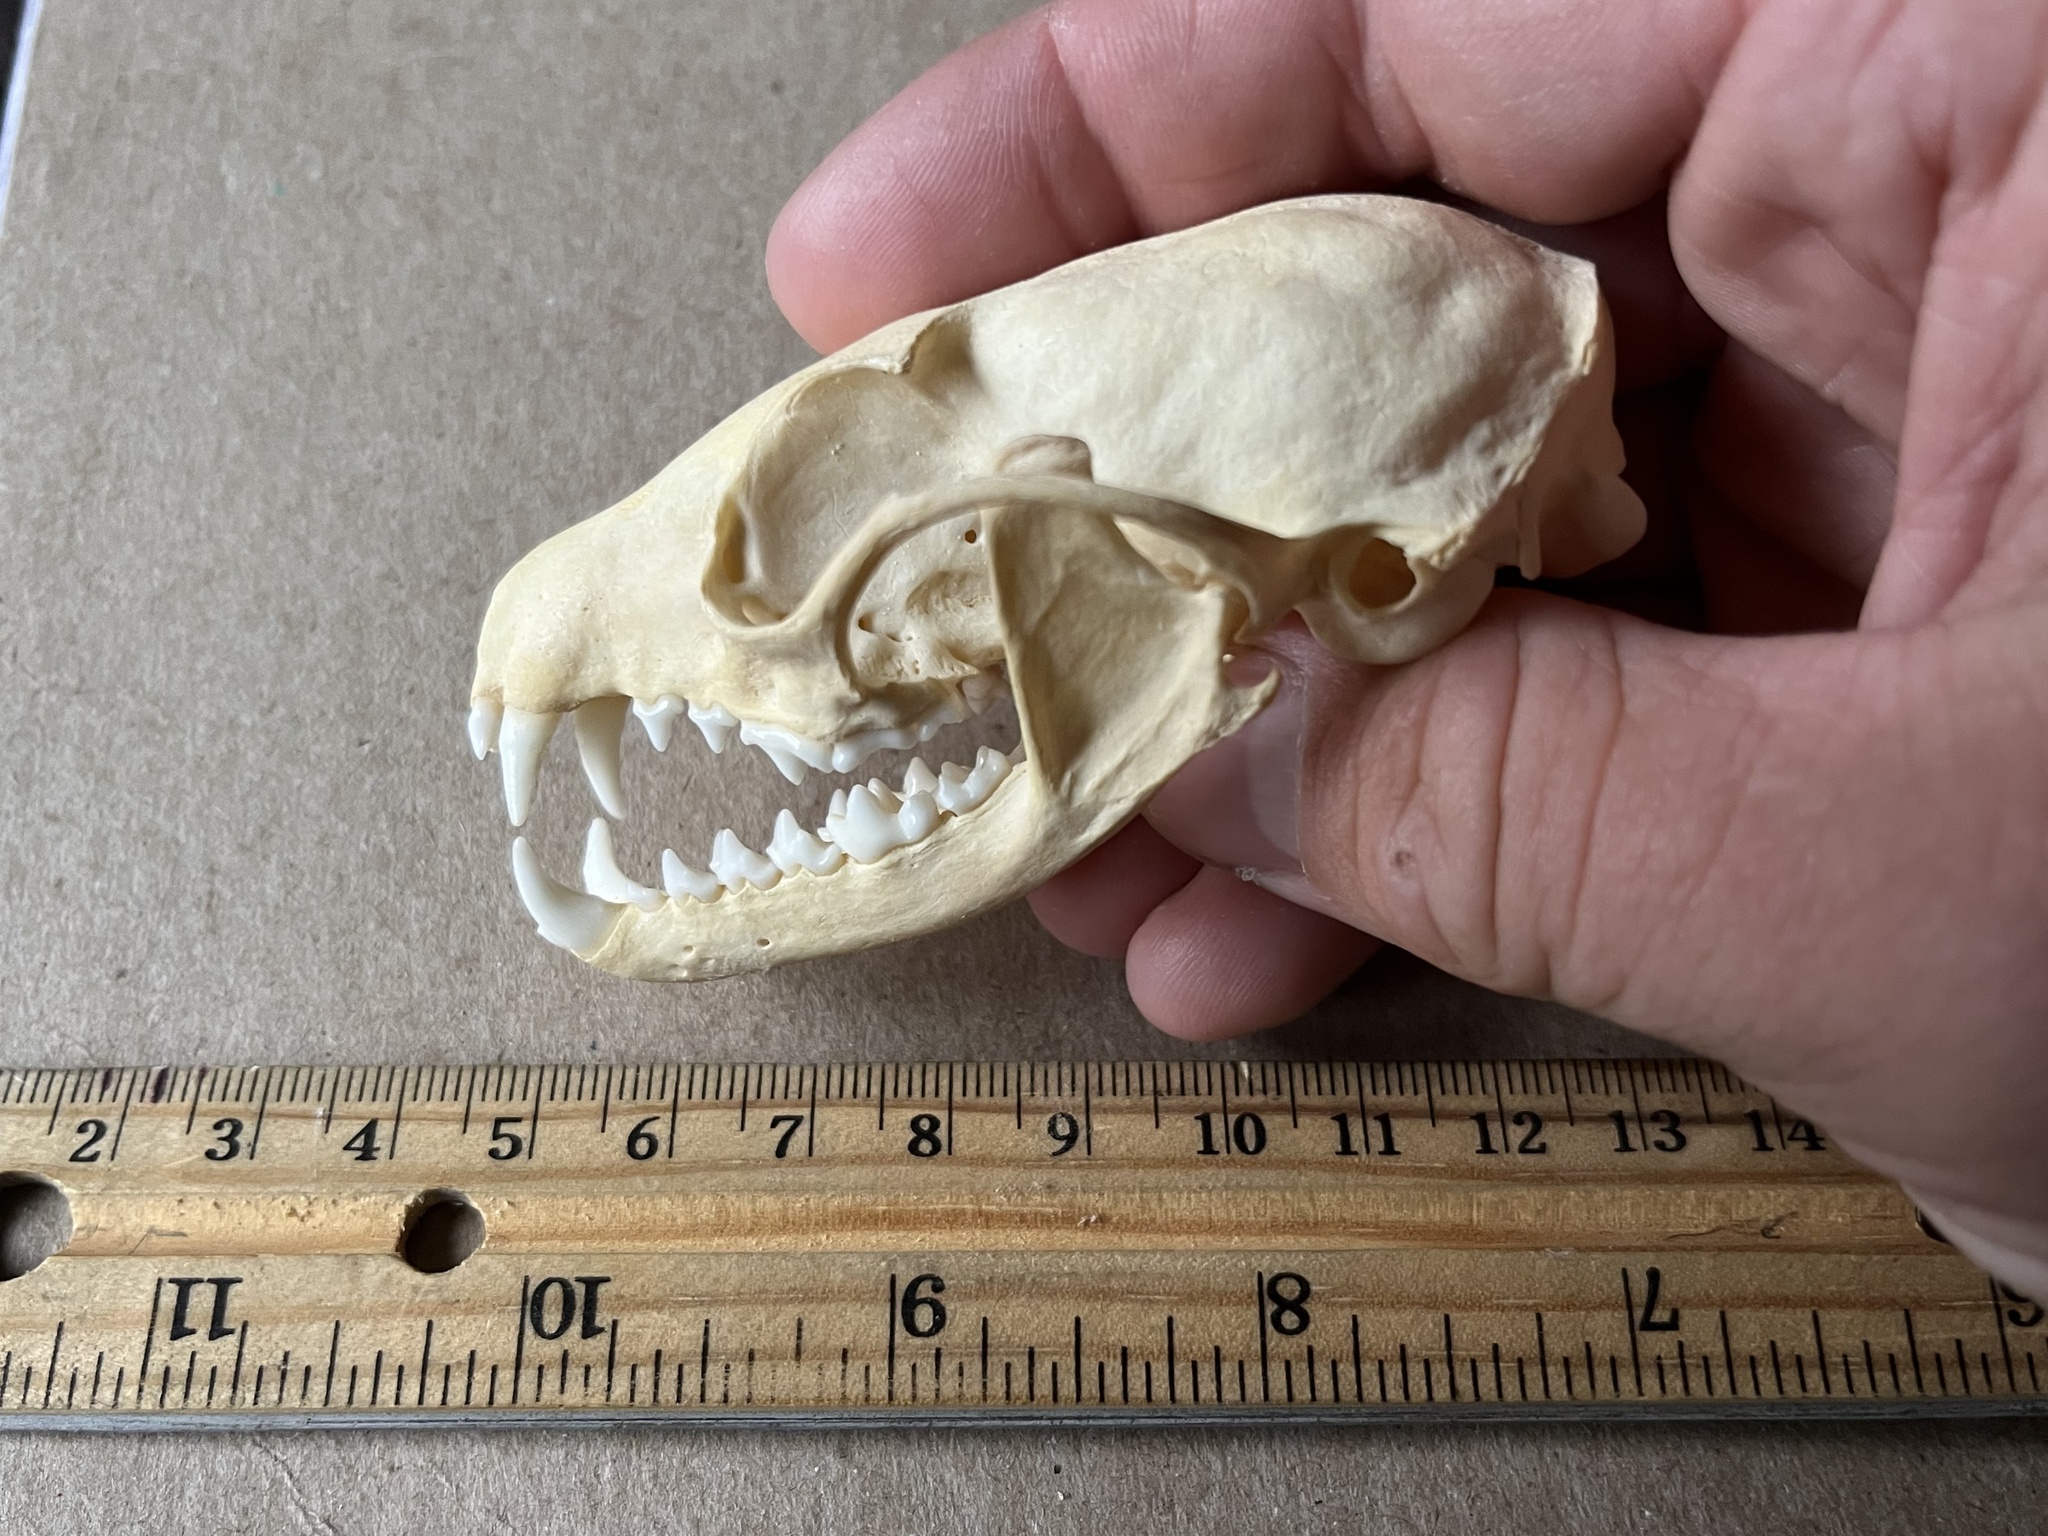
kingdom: Animalia
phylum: Chordata
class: Mammalia
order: Carnivora
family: Procyonidae
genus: Bassariscus
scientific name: Bassariscus astutus
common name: Ringtail
